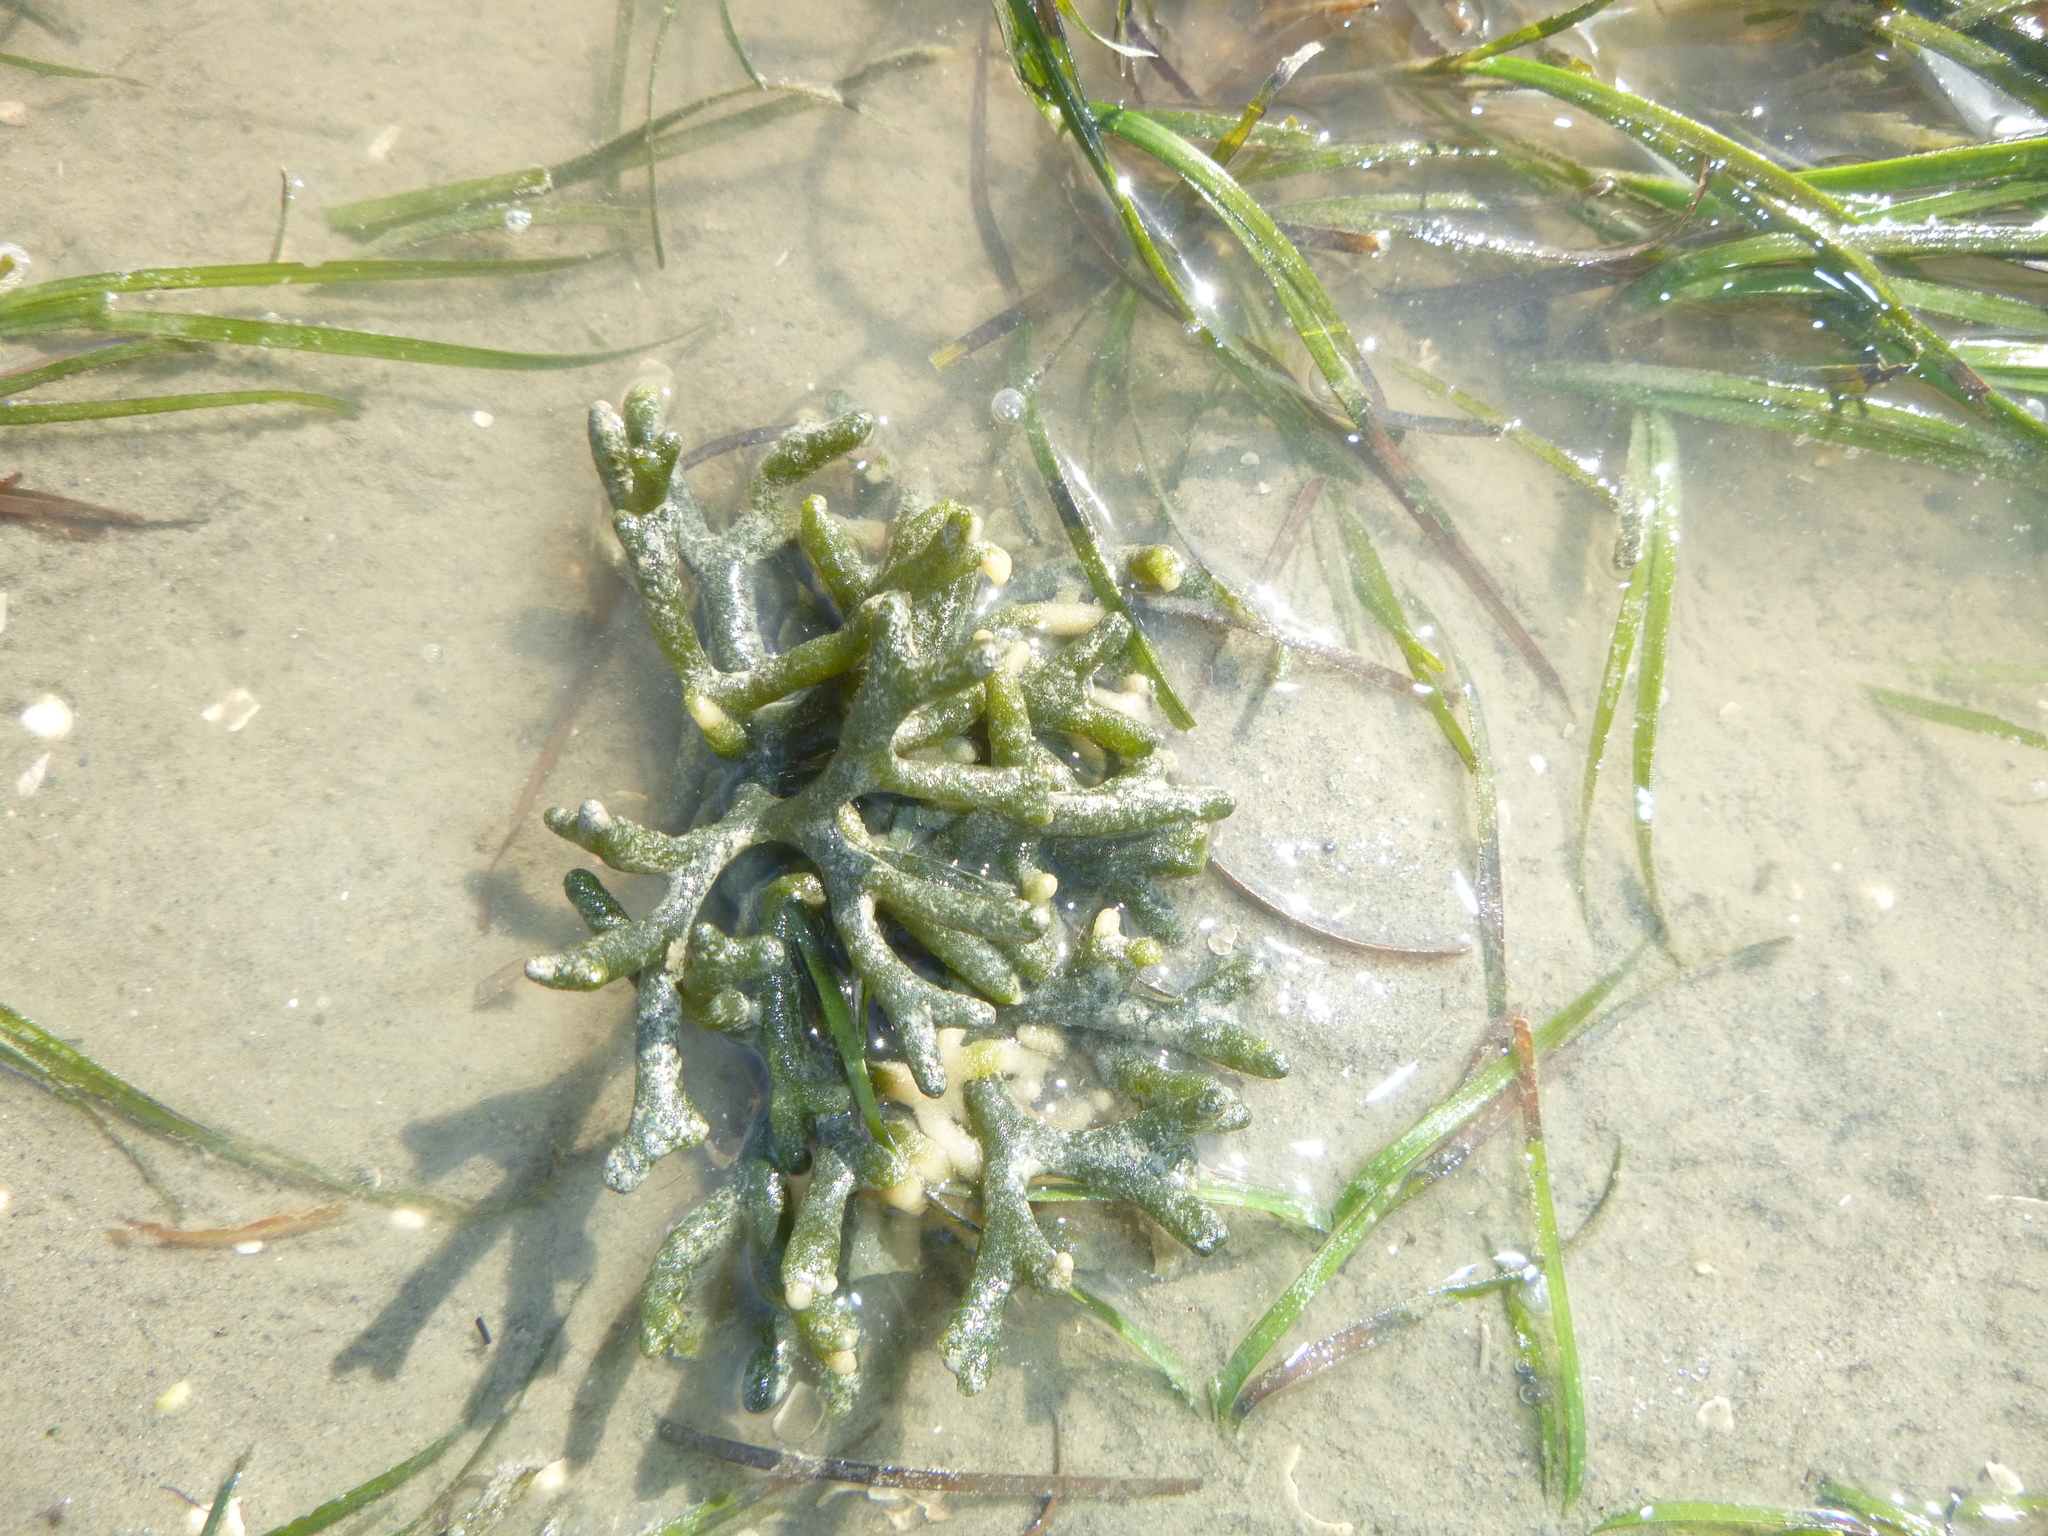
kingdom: Plantae
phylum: Chlorophyta
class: Ulvophyceae
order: Bryopsidales
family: Codiaceae
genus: Codium
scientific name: Codium fragile
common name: Dead man's fingers
